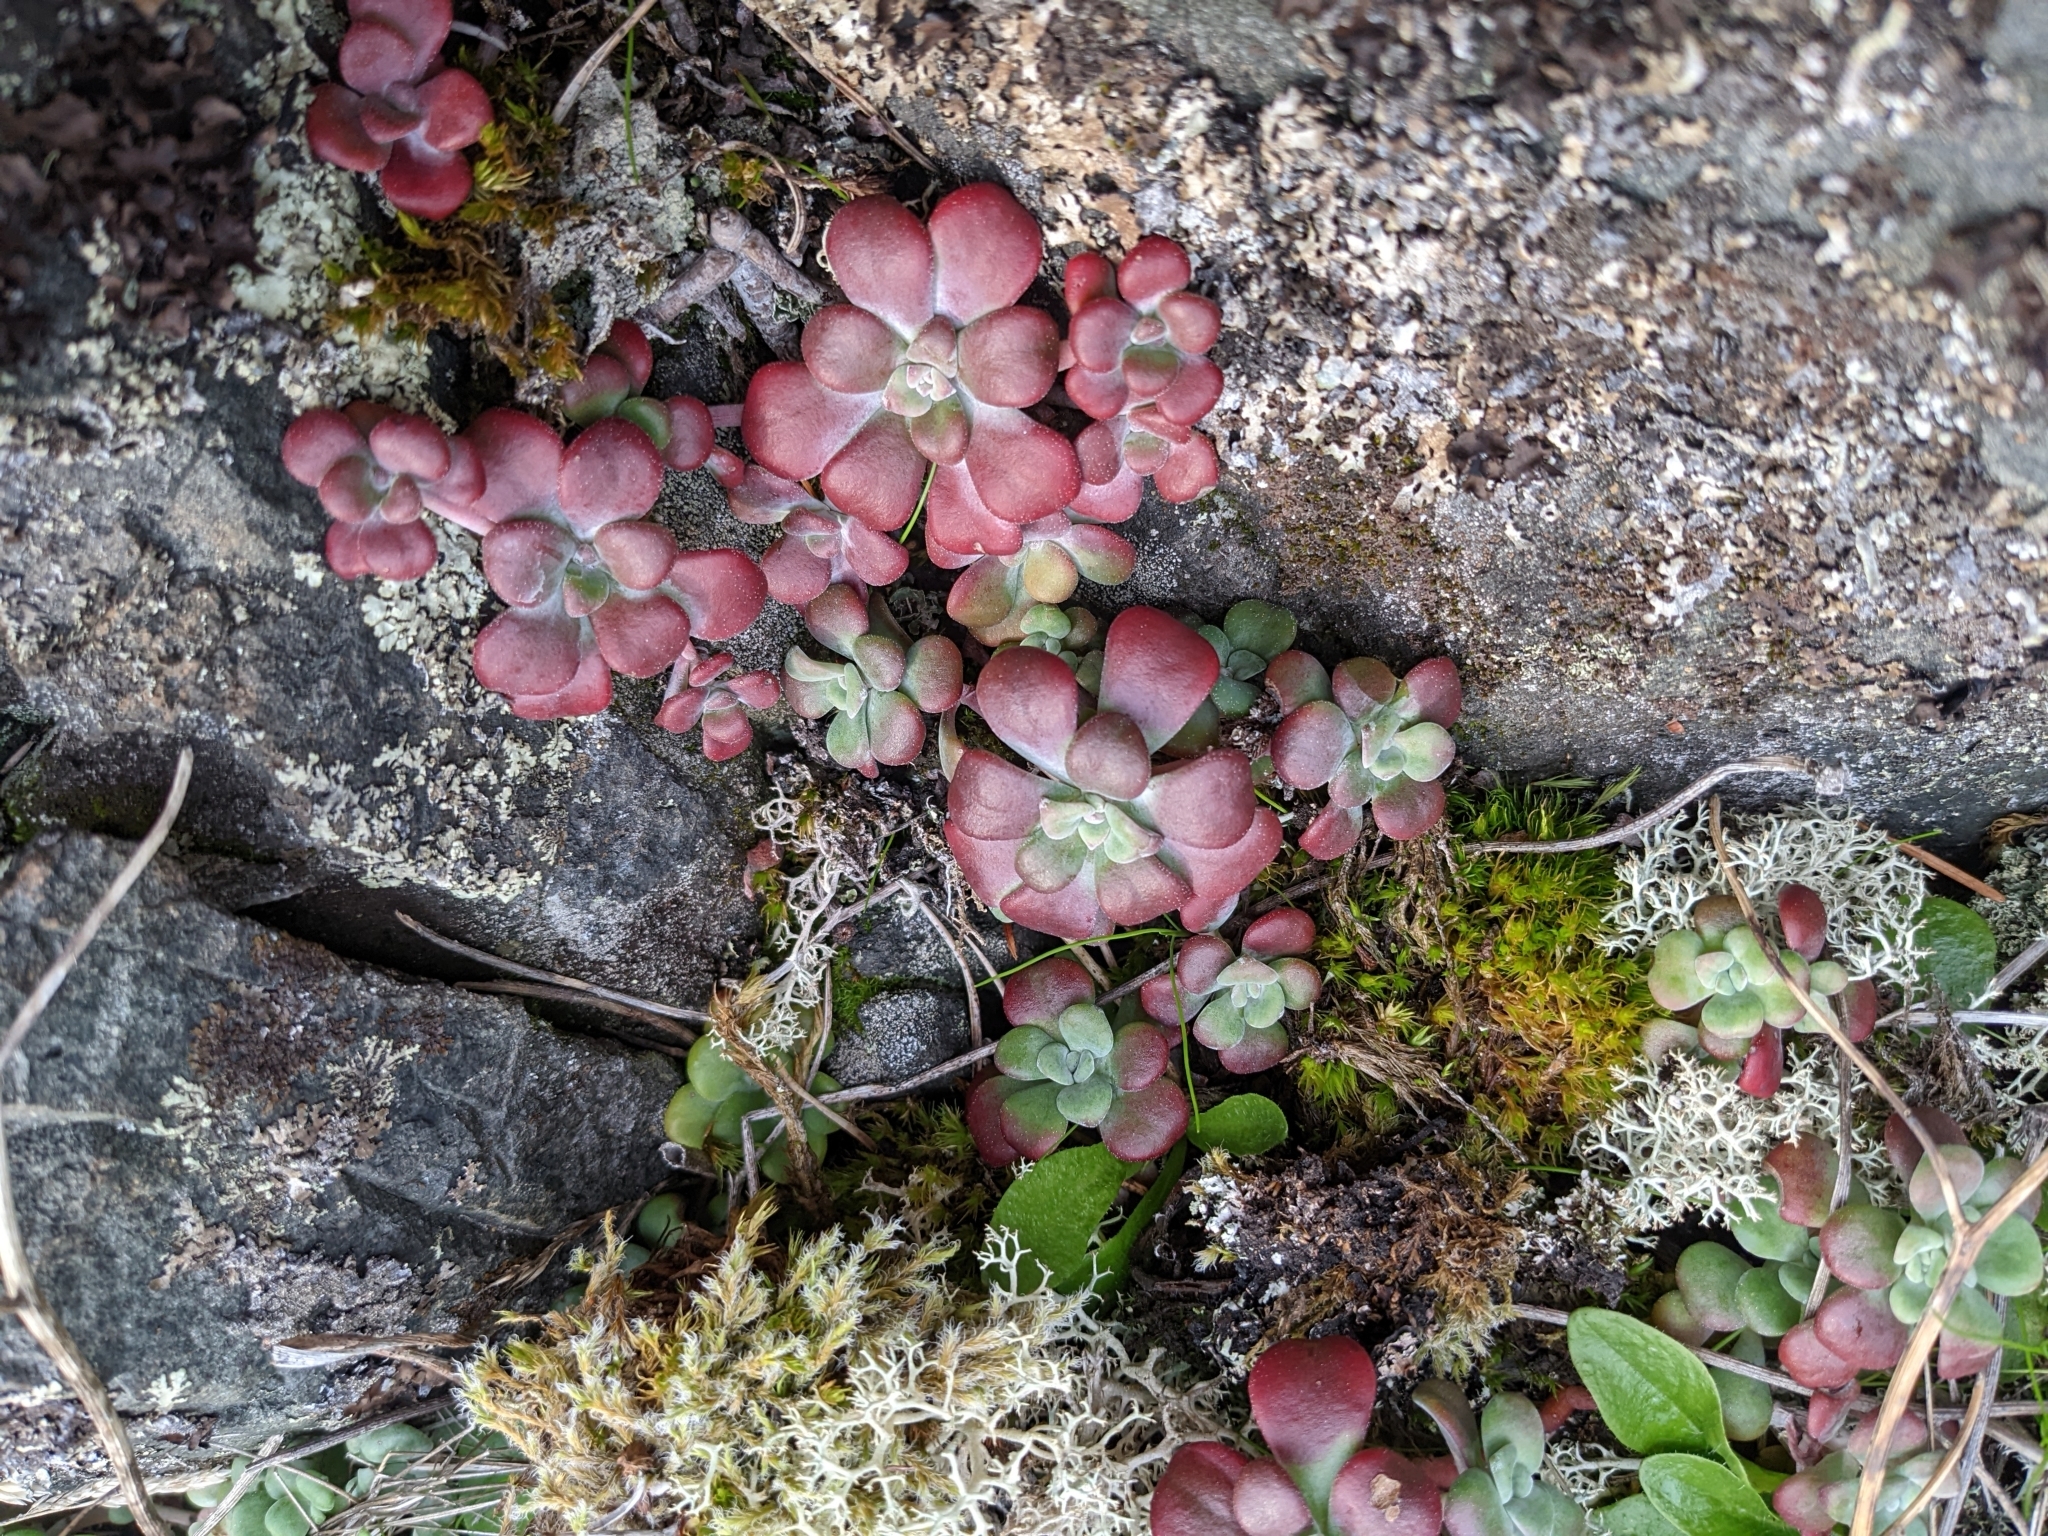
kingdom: Plantae
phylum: Tracheophyta
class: Magnoliopsida
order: Saxifragales
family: Crassulaceae
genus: Sedum
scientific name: Sedum spathulifolium
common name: Colorado stonecrop
